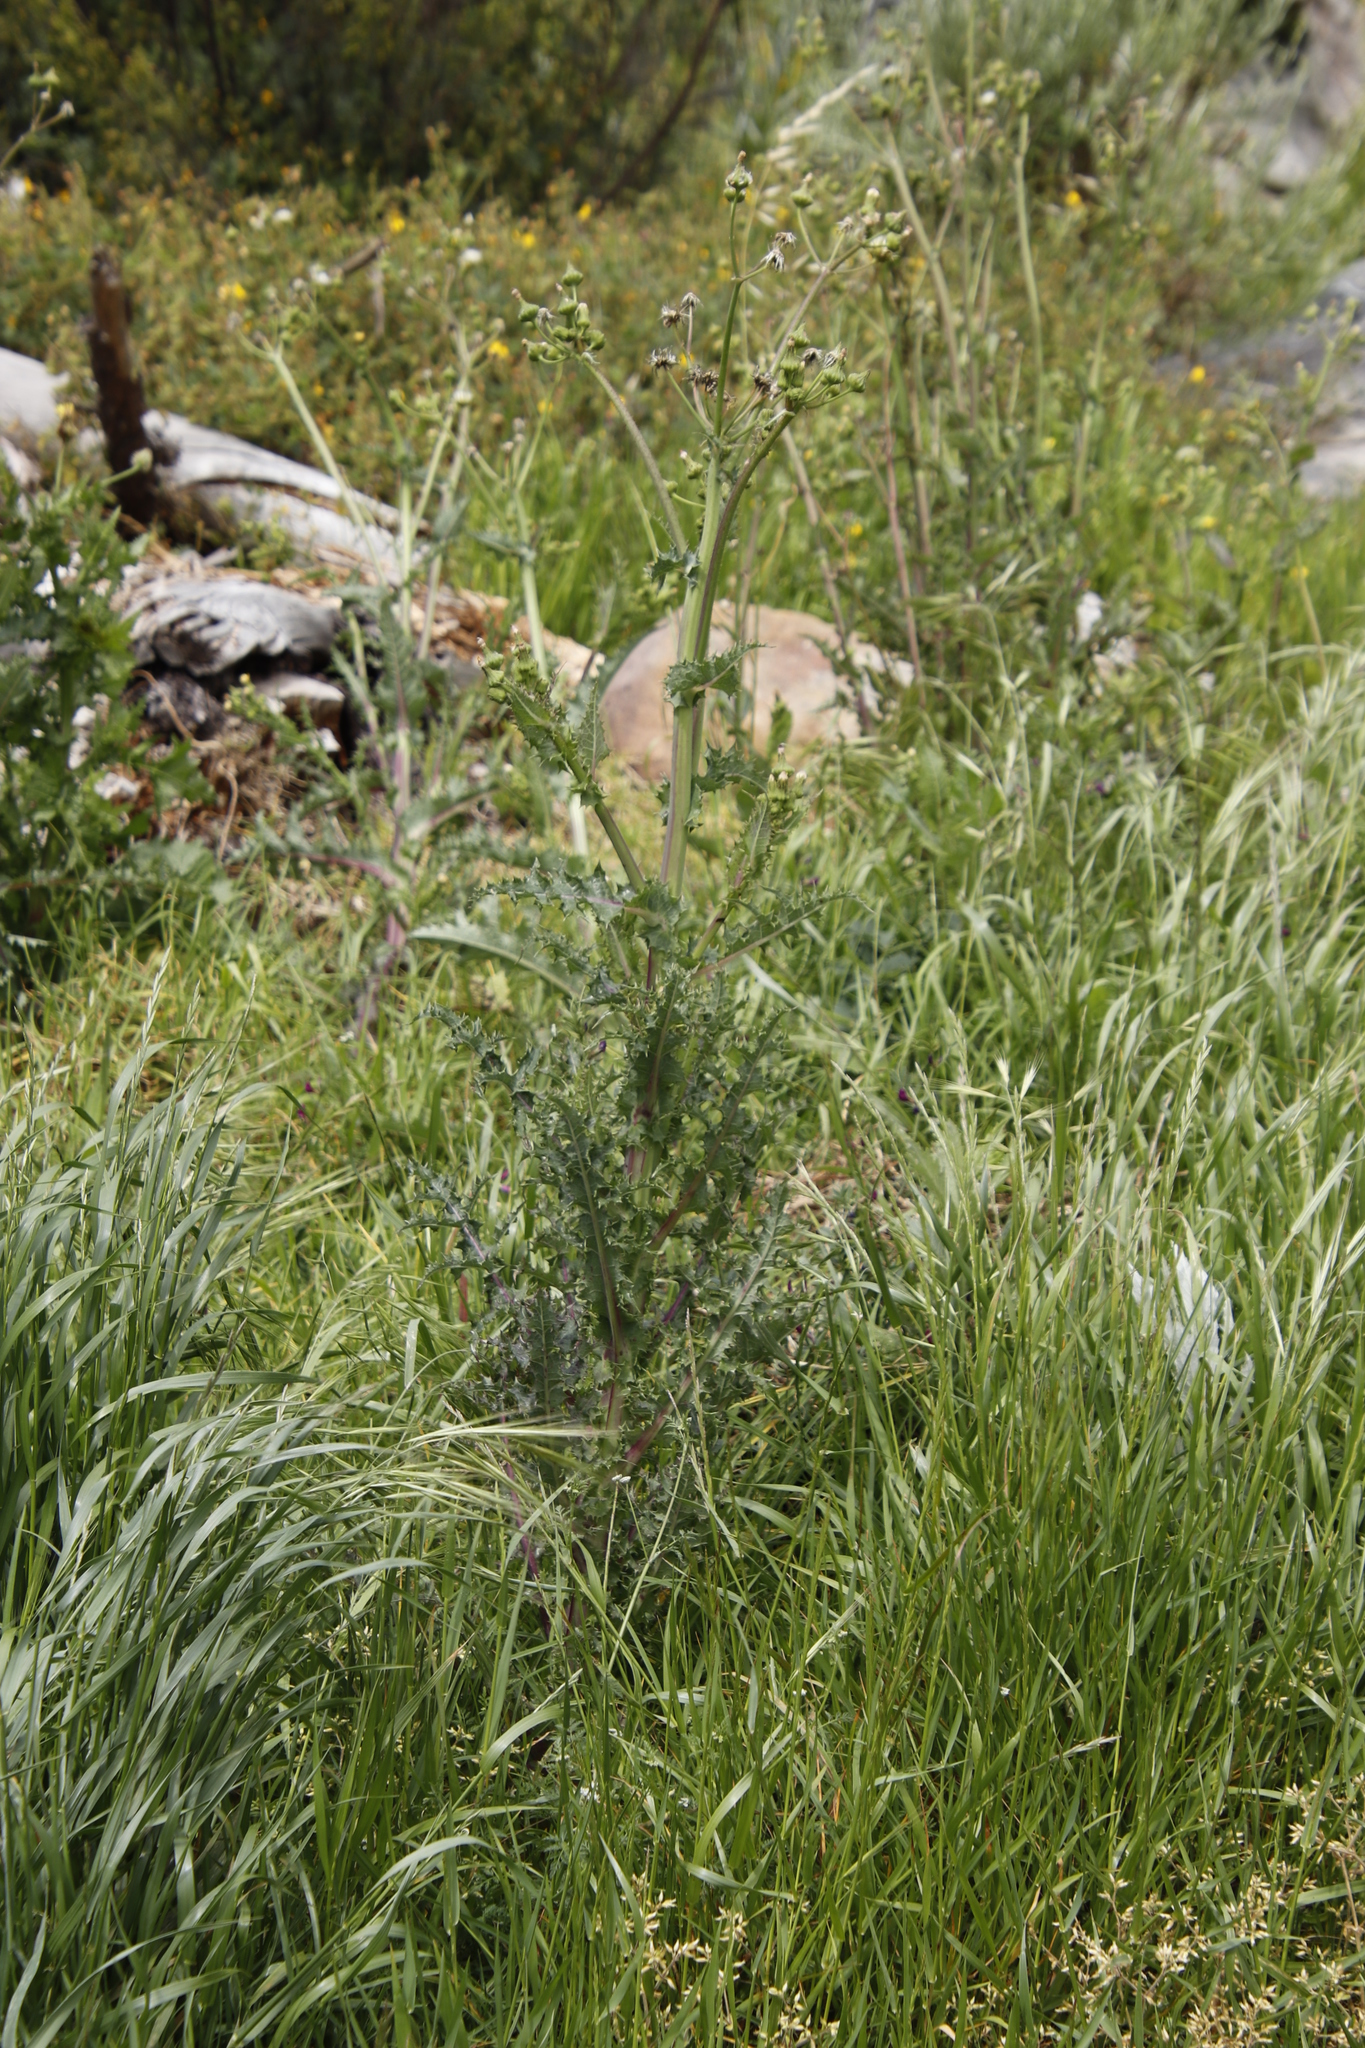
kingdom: Plantae
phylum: Tracheophyta
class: Magnoliopsida
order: Asterales
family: Asteraceae
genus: Sonchus
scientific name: Sonchus asper
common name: Prickly sow-thistle
